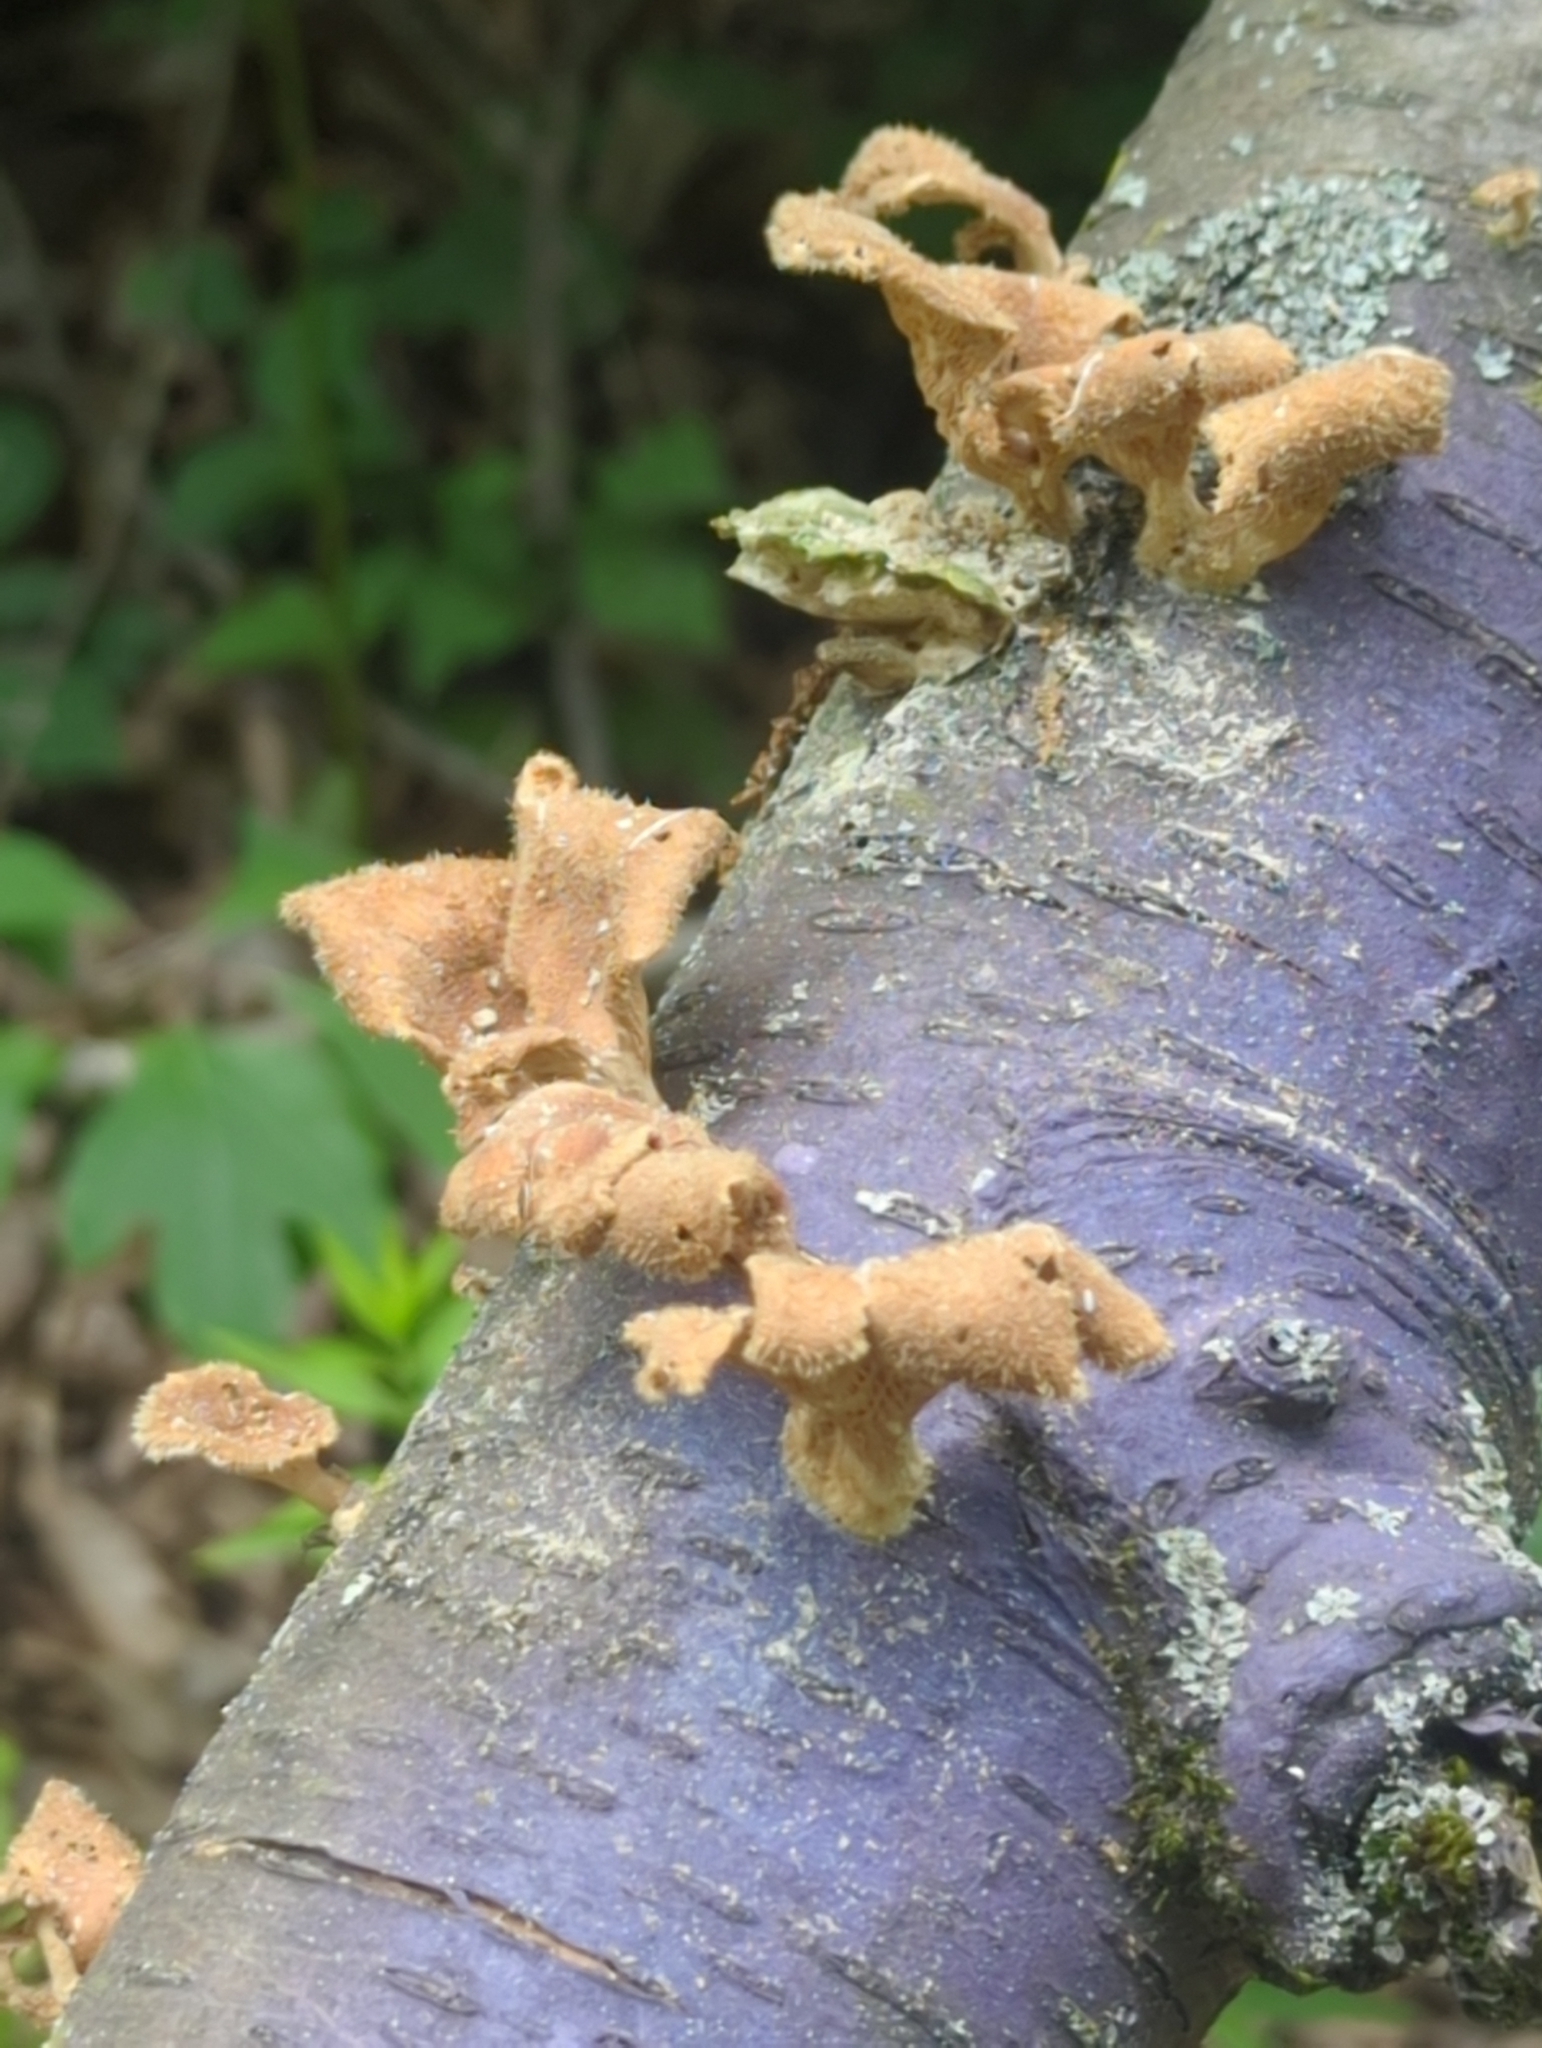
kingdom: Fungi
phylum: Basidiomycota
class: Agaricomycetes
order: Polyporales
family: Panaceae
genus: Panus
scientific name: Panus neostrigosus
